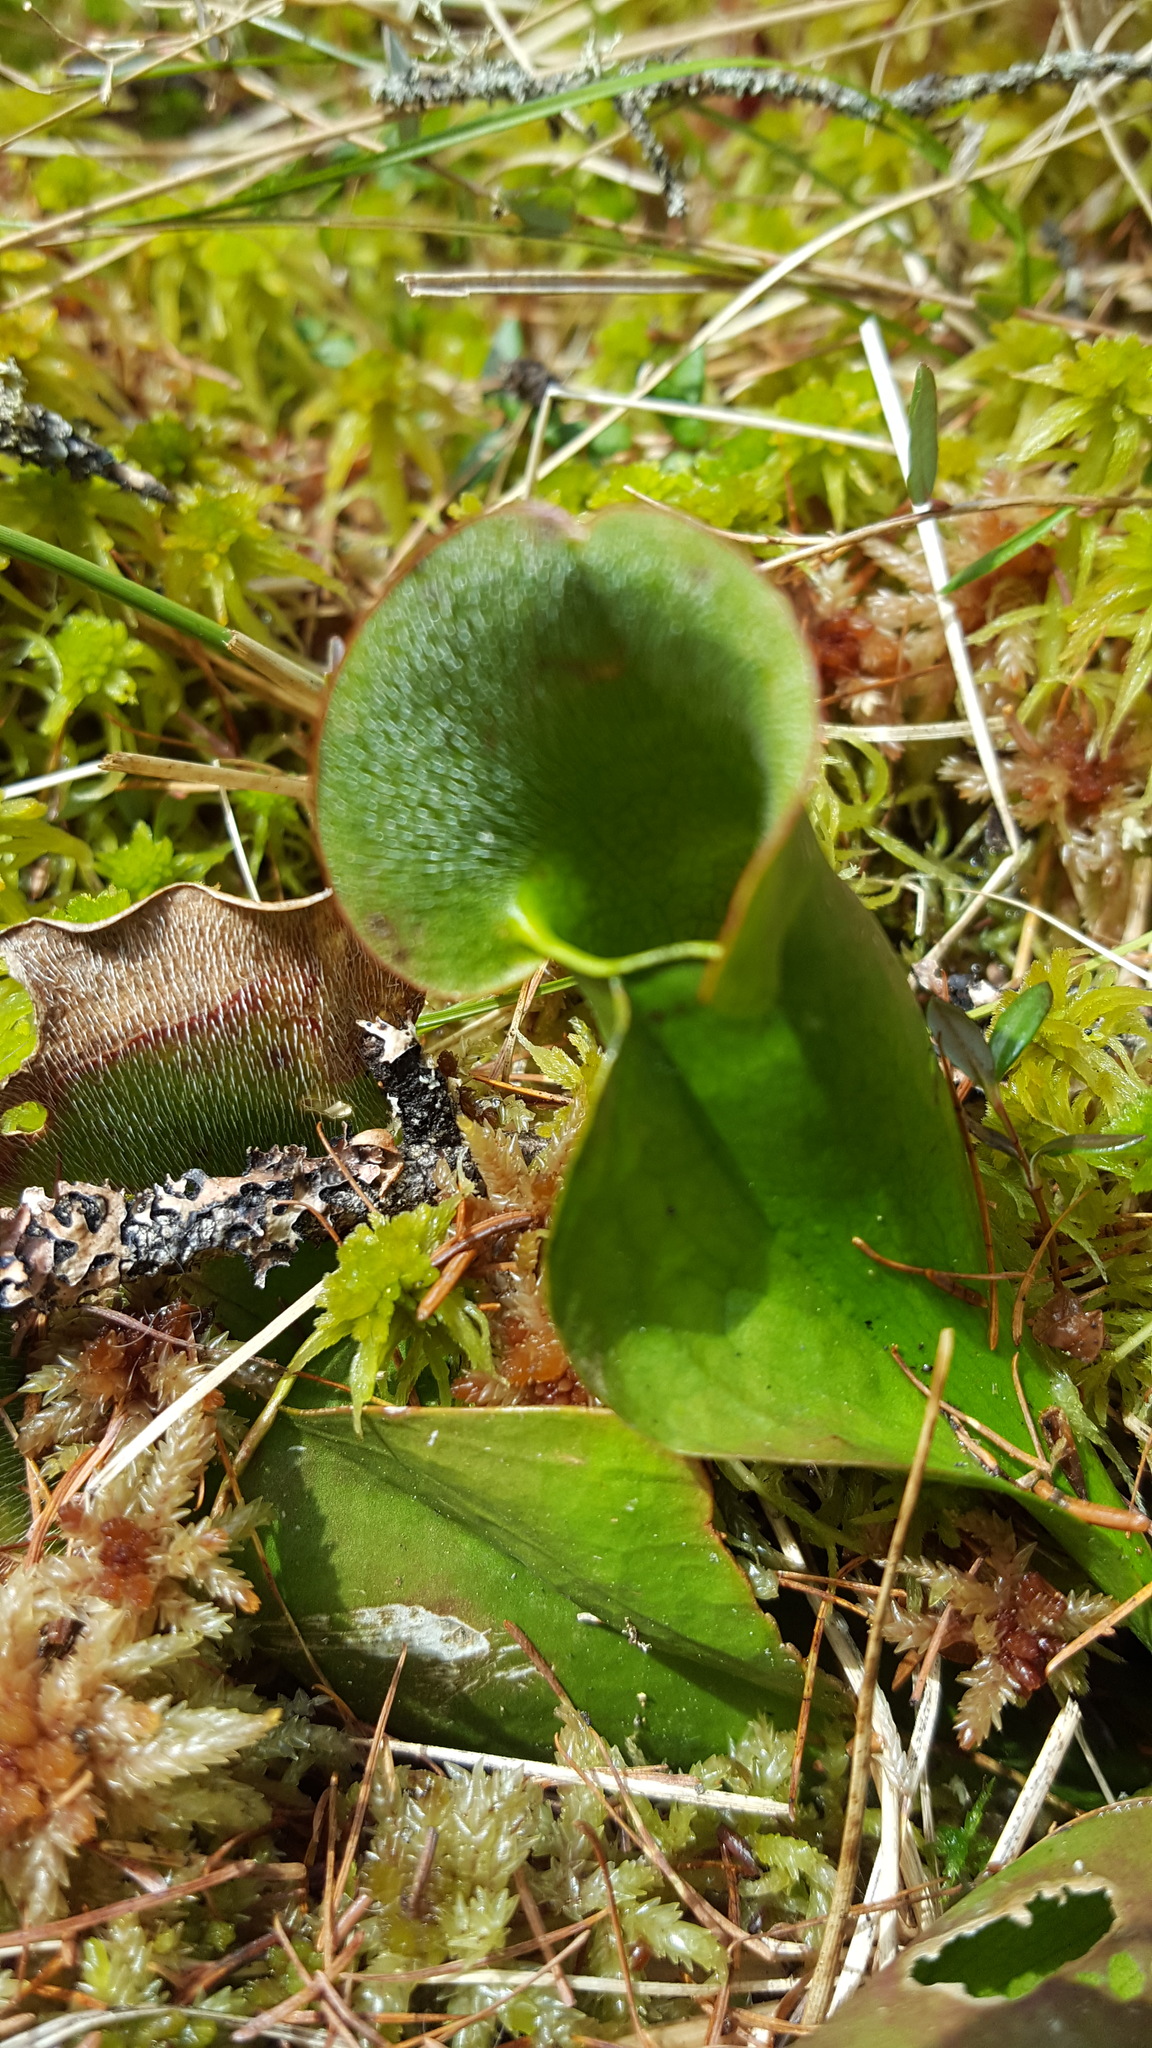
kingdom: Plantae
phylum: Tracheophyta
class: Magnoliopsida
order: Ericales
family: Sarraceniaceae
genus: Sarracenia
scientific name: Sarracenia purpurea
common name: Pitcherplant
